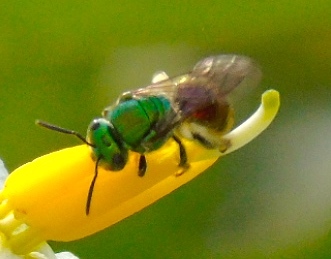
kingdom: Animalia
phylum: Arthropoda
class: Insecta
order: Hymenoptera
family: Halictidae
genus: Augochloropsis
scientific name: Augochloropsis
